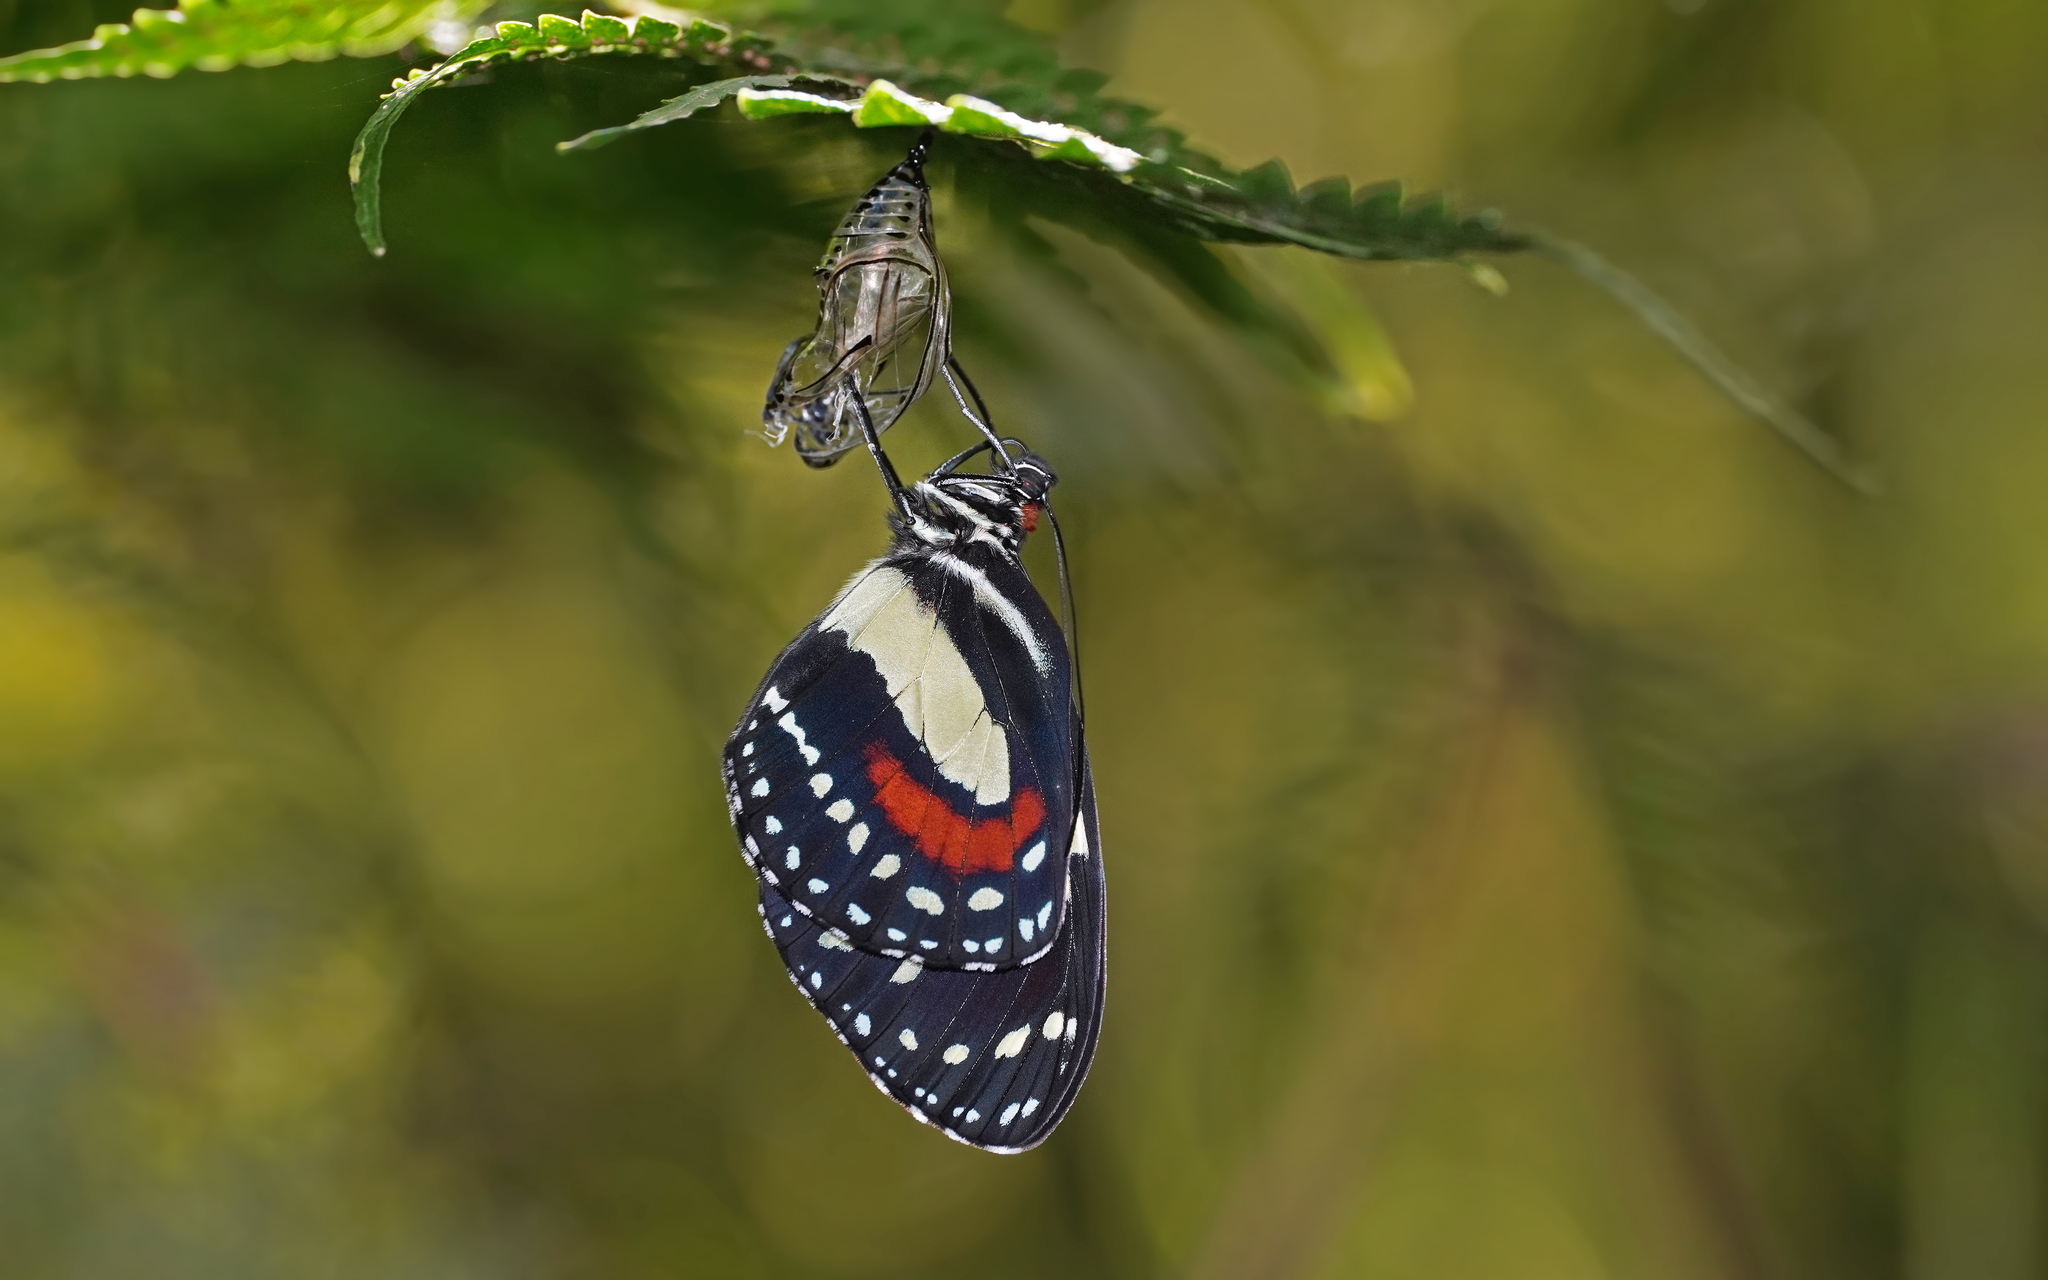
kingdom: Animalia
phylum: Arthropoda
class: Insecta
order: Lepidoptera
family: Nymphalidae
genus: Elzunia
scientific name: Elzunia bomplandii
